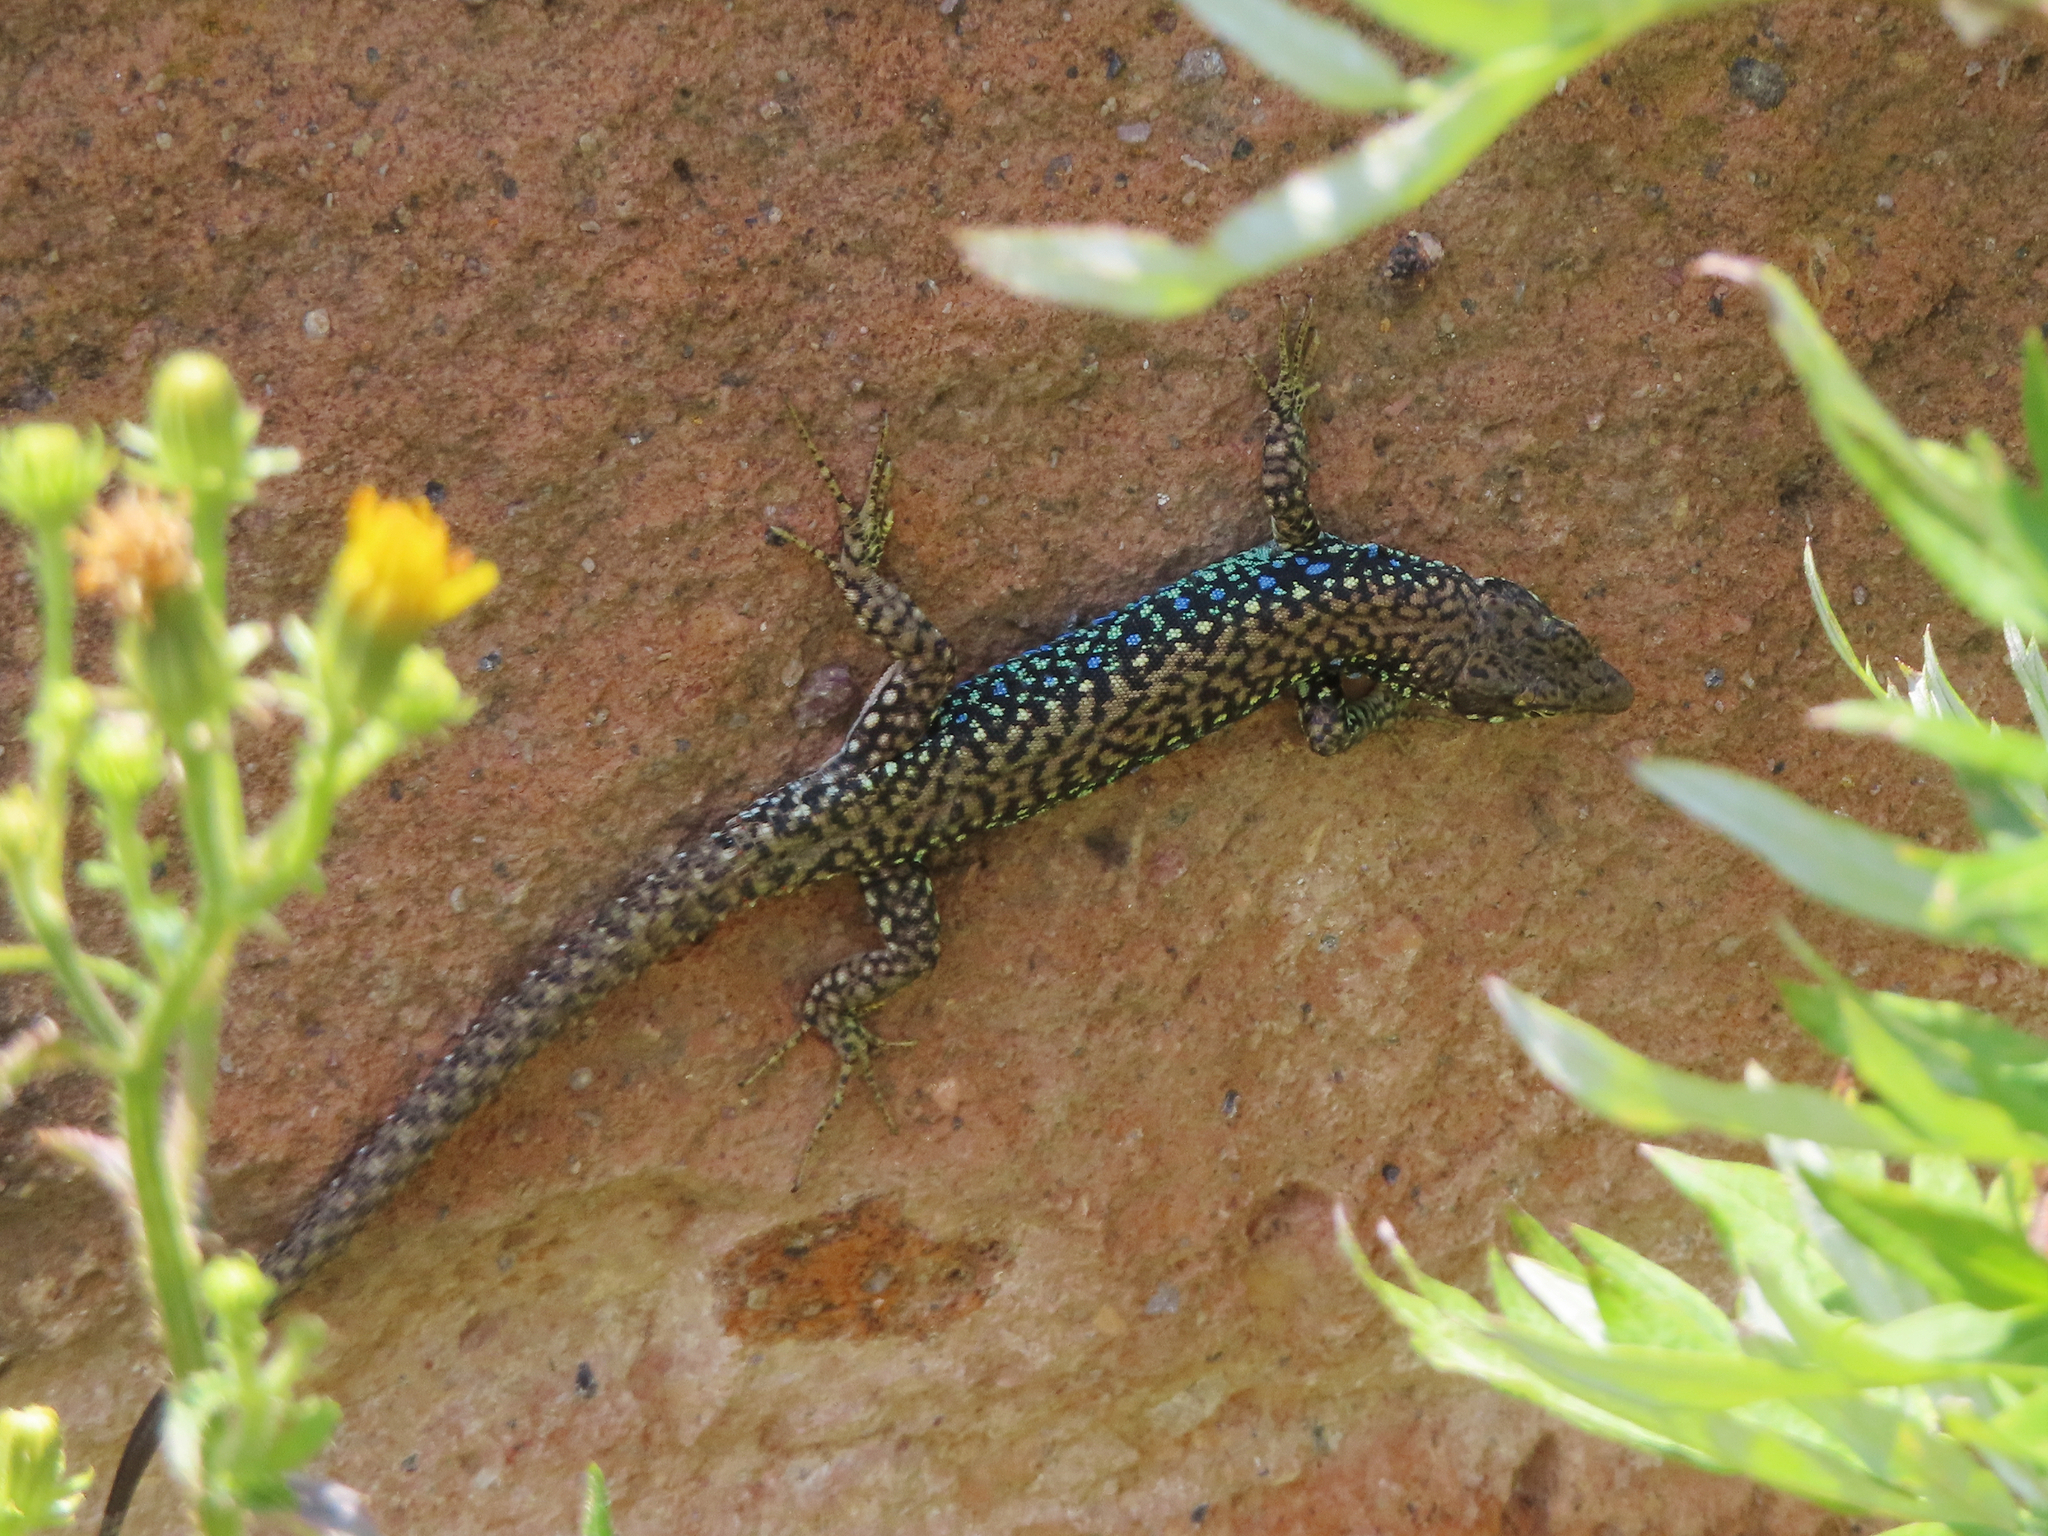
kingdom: Animalia
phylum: Chordata
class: Squamata
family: Lacertidae
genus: Darevskia
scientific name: Darevskia
